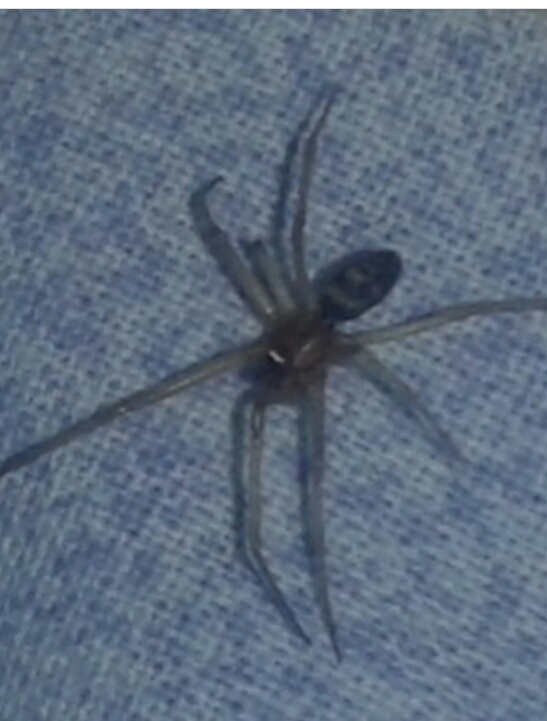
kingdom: Animalia
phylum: Arthropoda
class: Arachnida
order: Araneae
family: Theridiidae
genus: Steatoda
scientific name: Steatoda grossa
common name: False black widow
